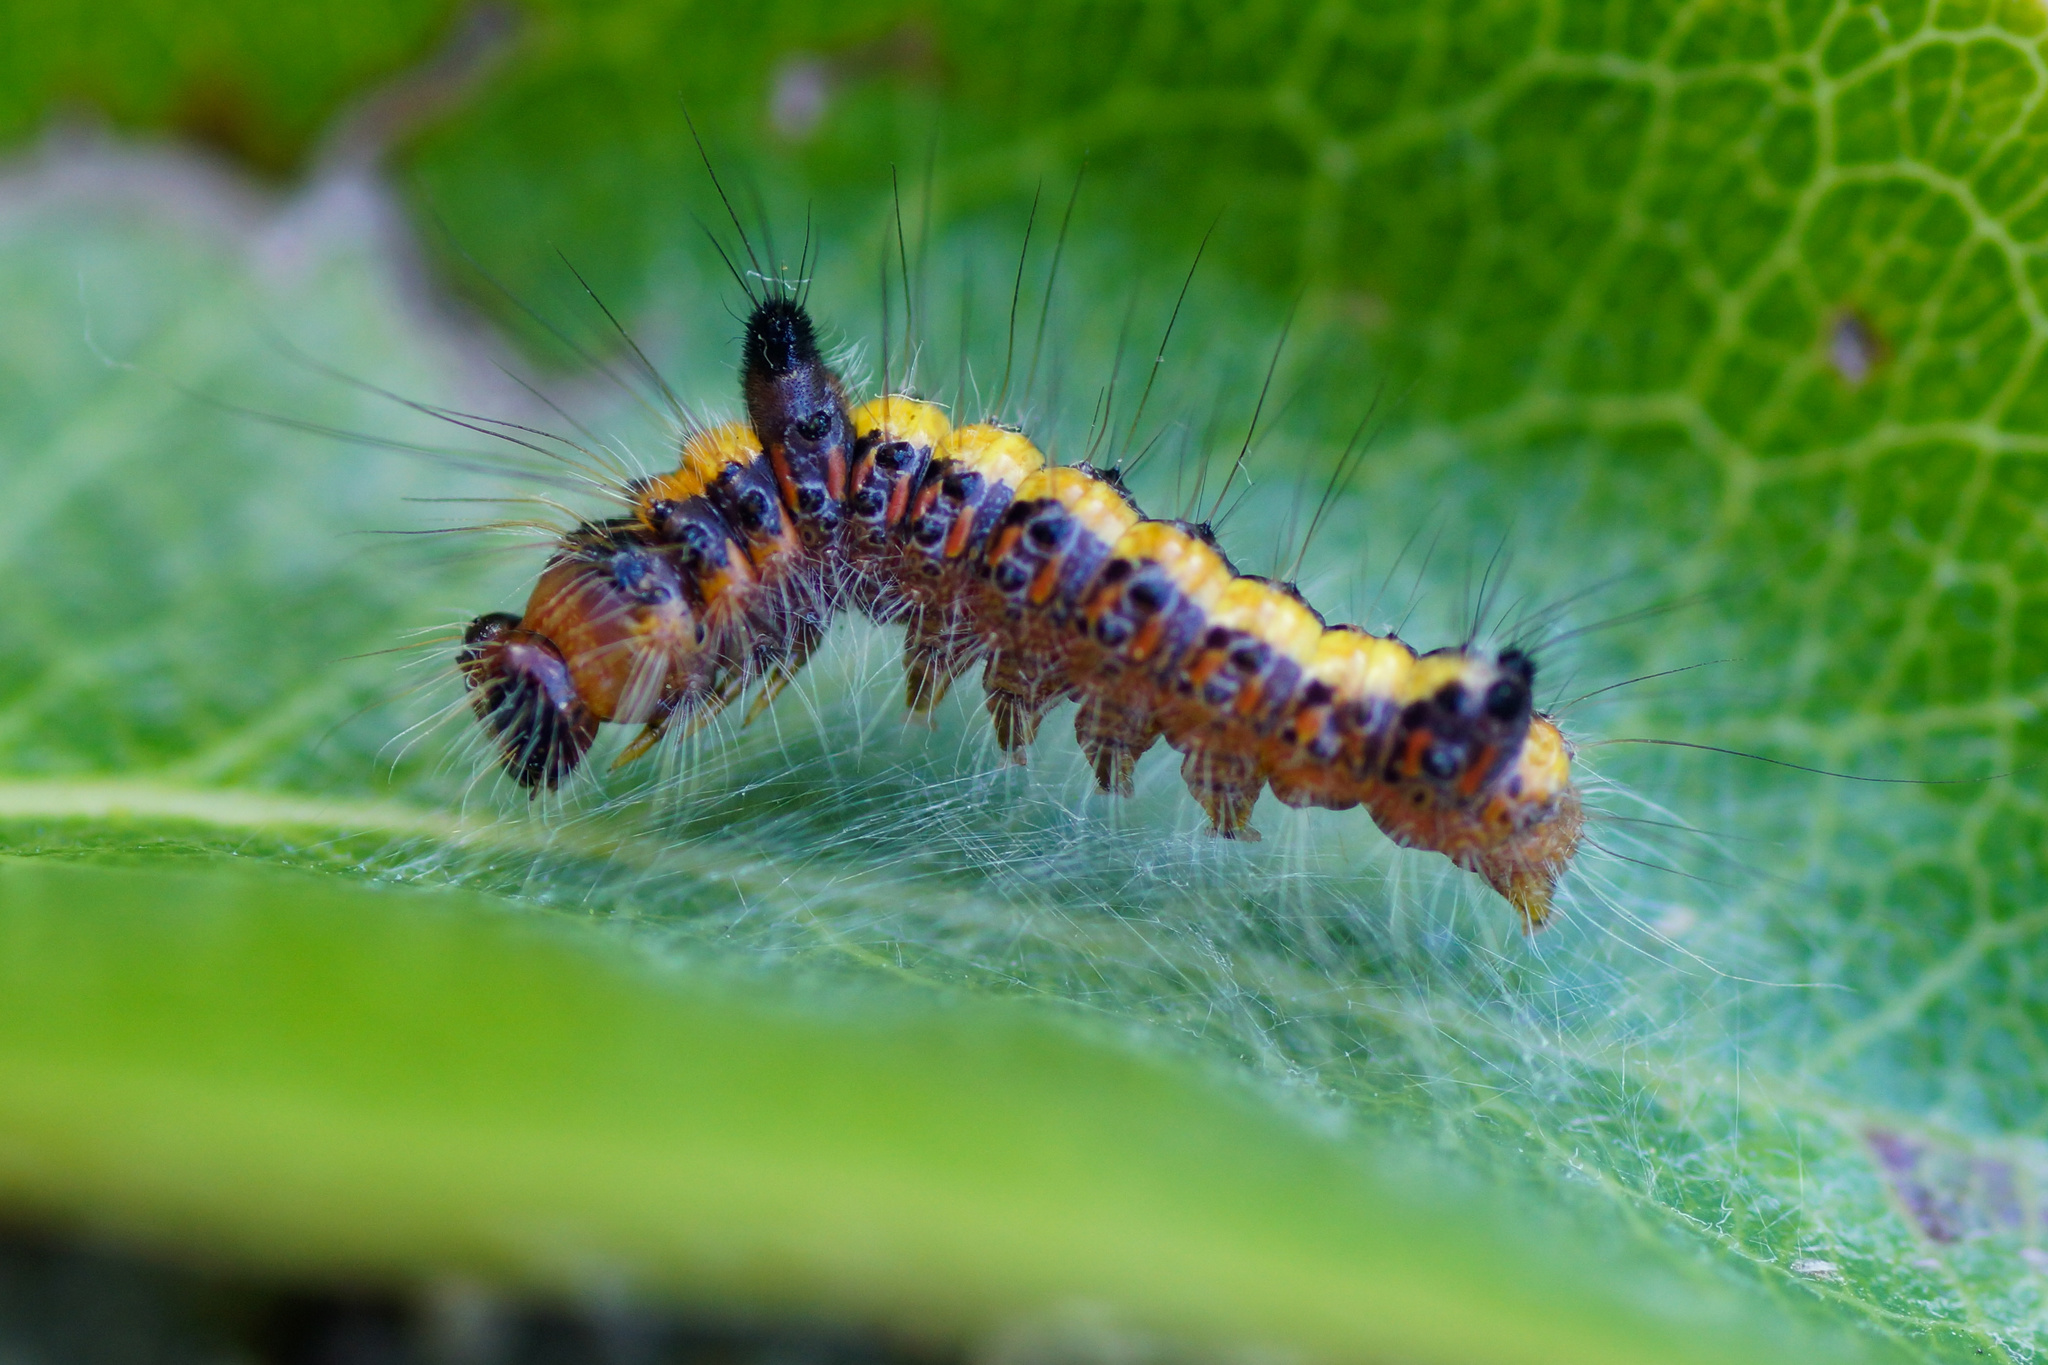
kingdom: Animalia
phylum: Arthropoda
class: Insecta
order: Lepidoptera
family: Noctuidae
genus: Acronicta
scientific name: Acronicta psi
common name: Grey dagger
